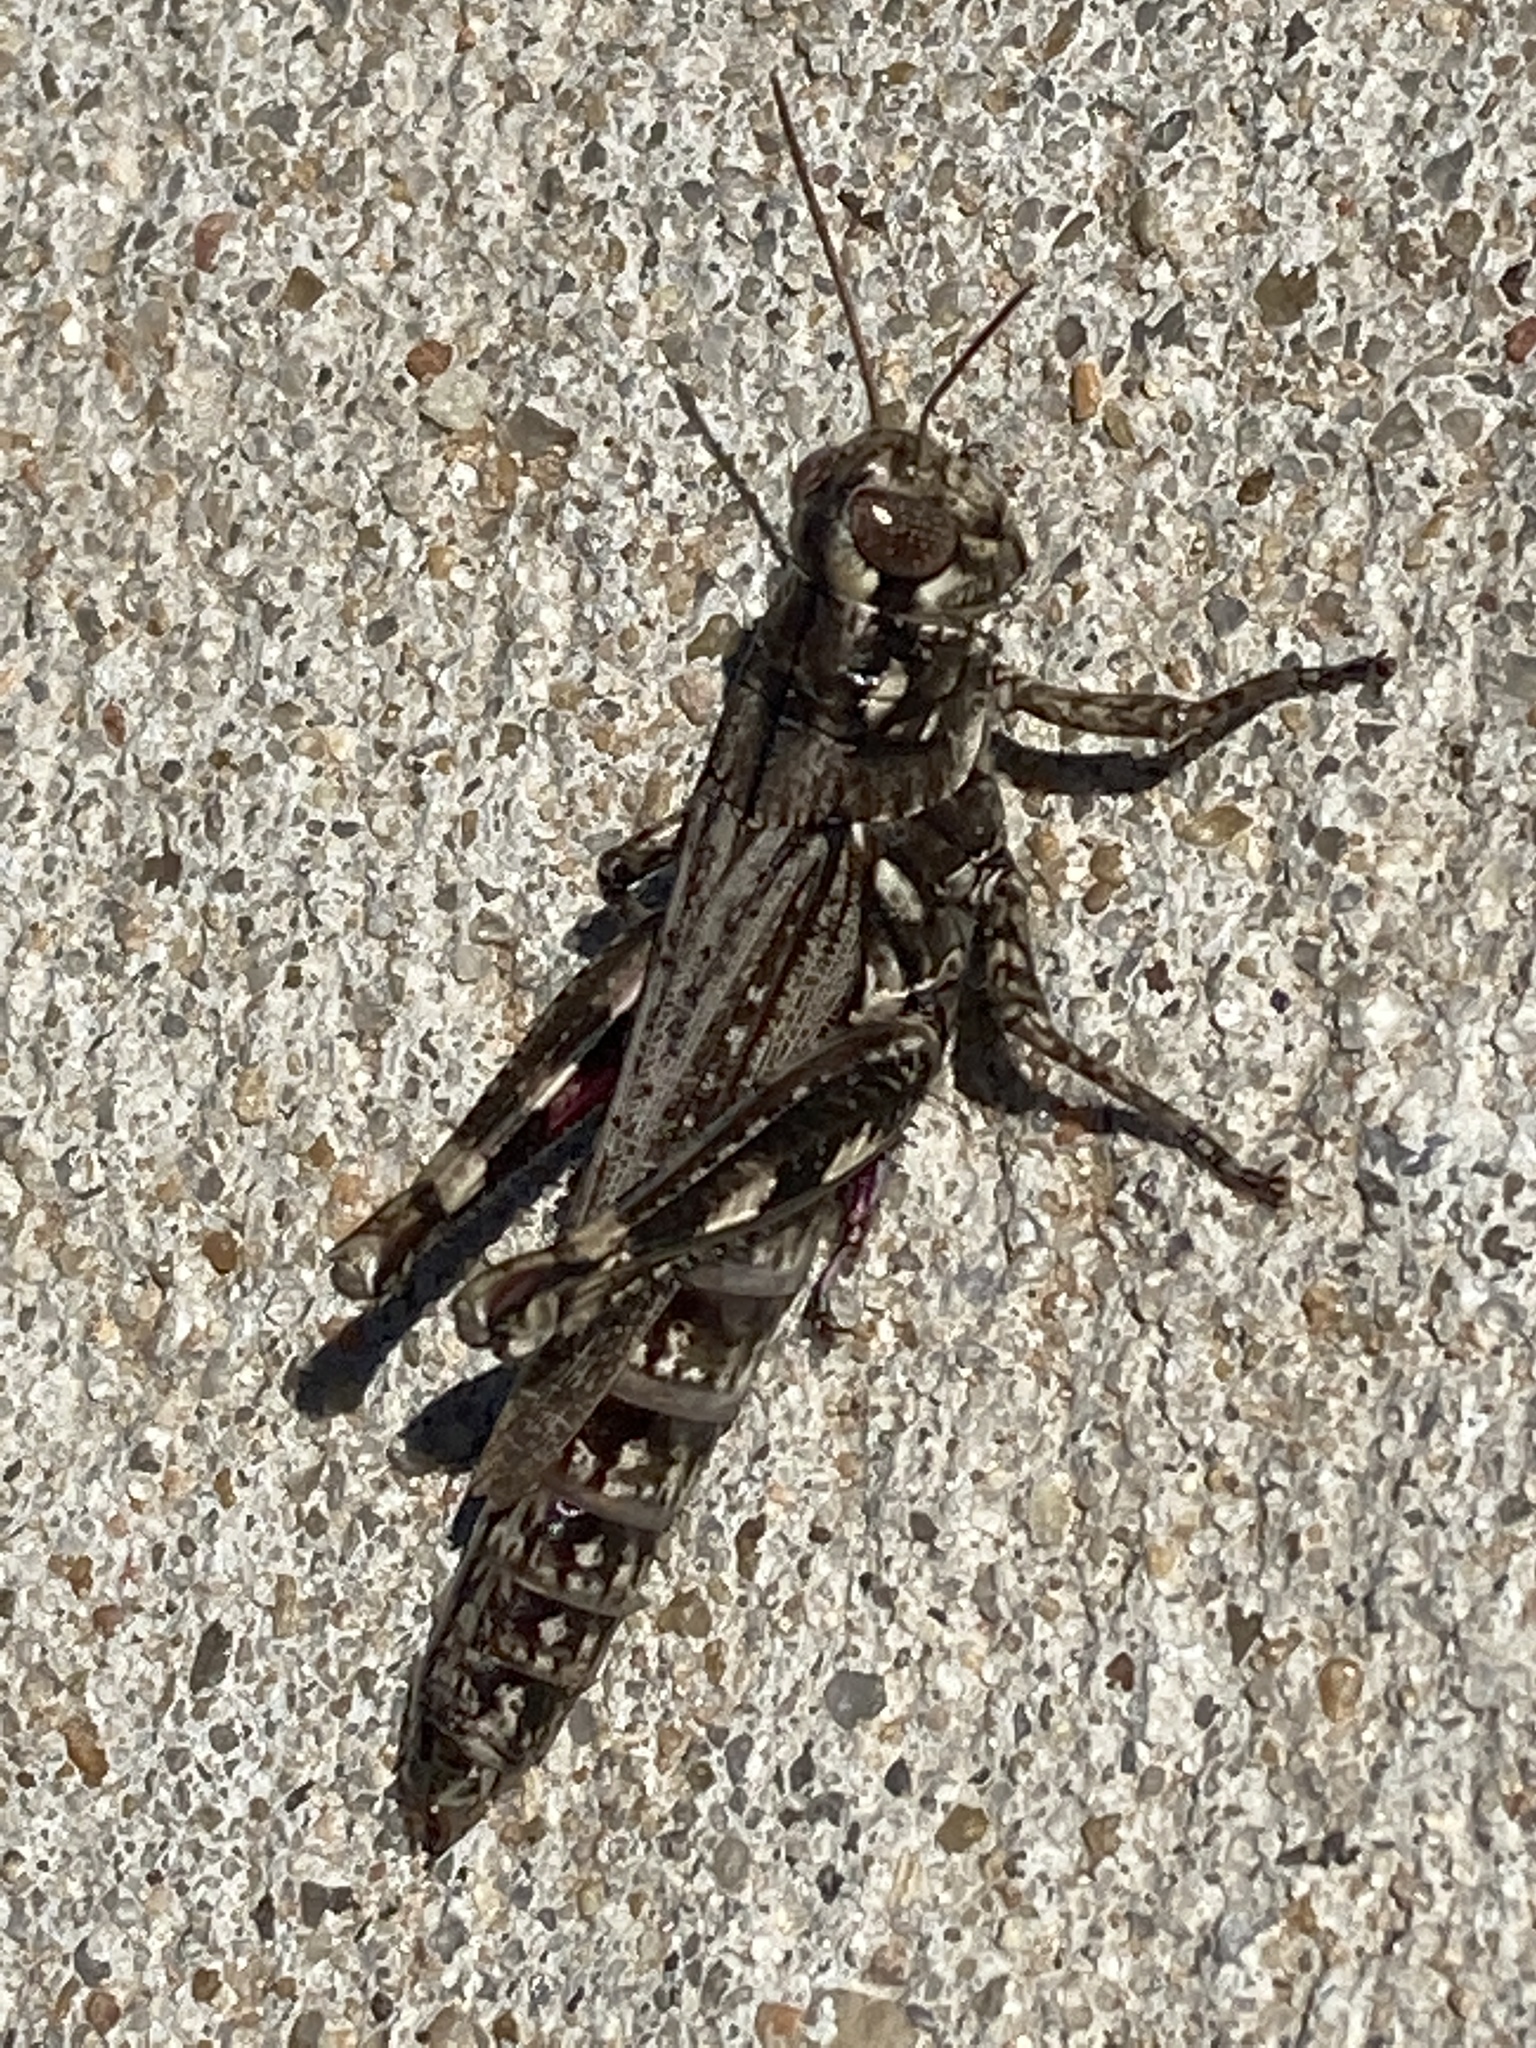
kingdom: Animalia
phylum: Arthropoda
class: Insecta
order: Orthoptera
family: Acrididae
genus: Melanoplus
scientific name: Melanoplus macclungi
